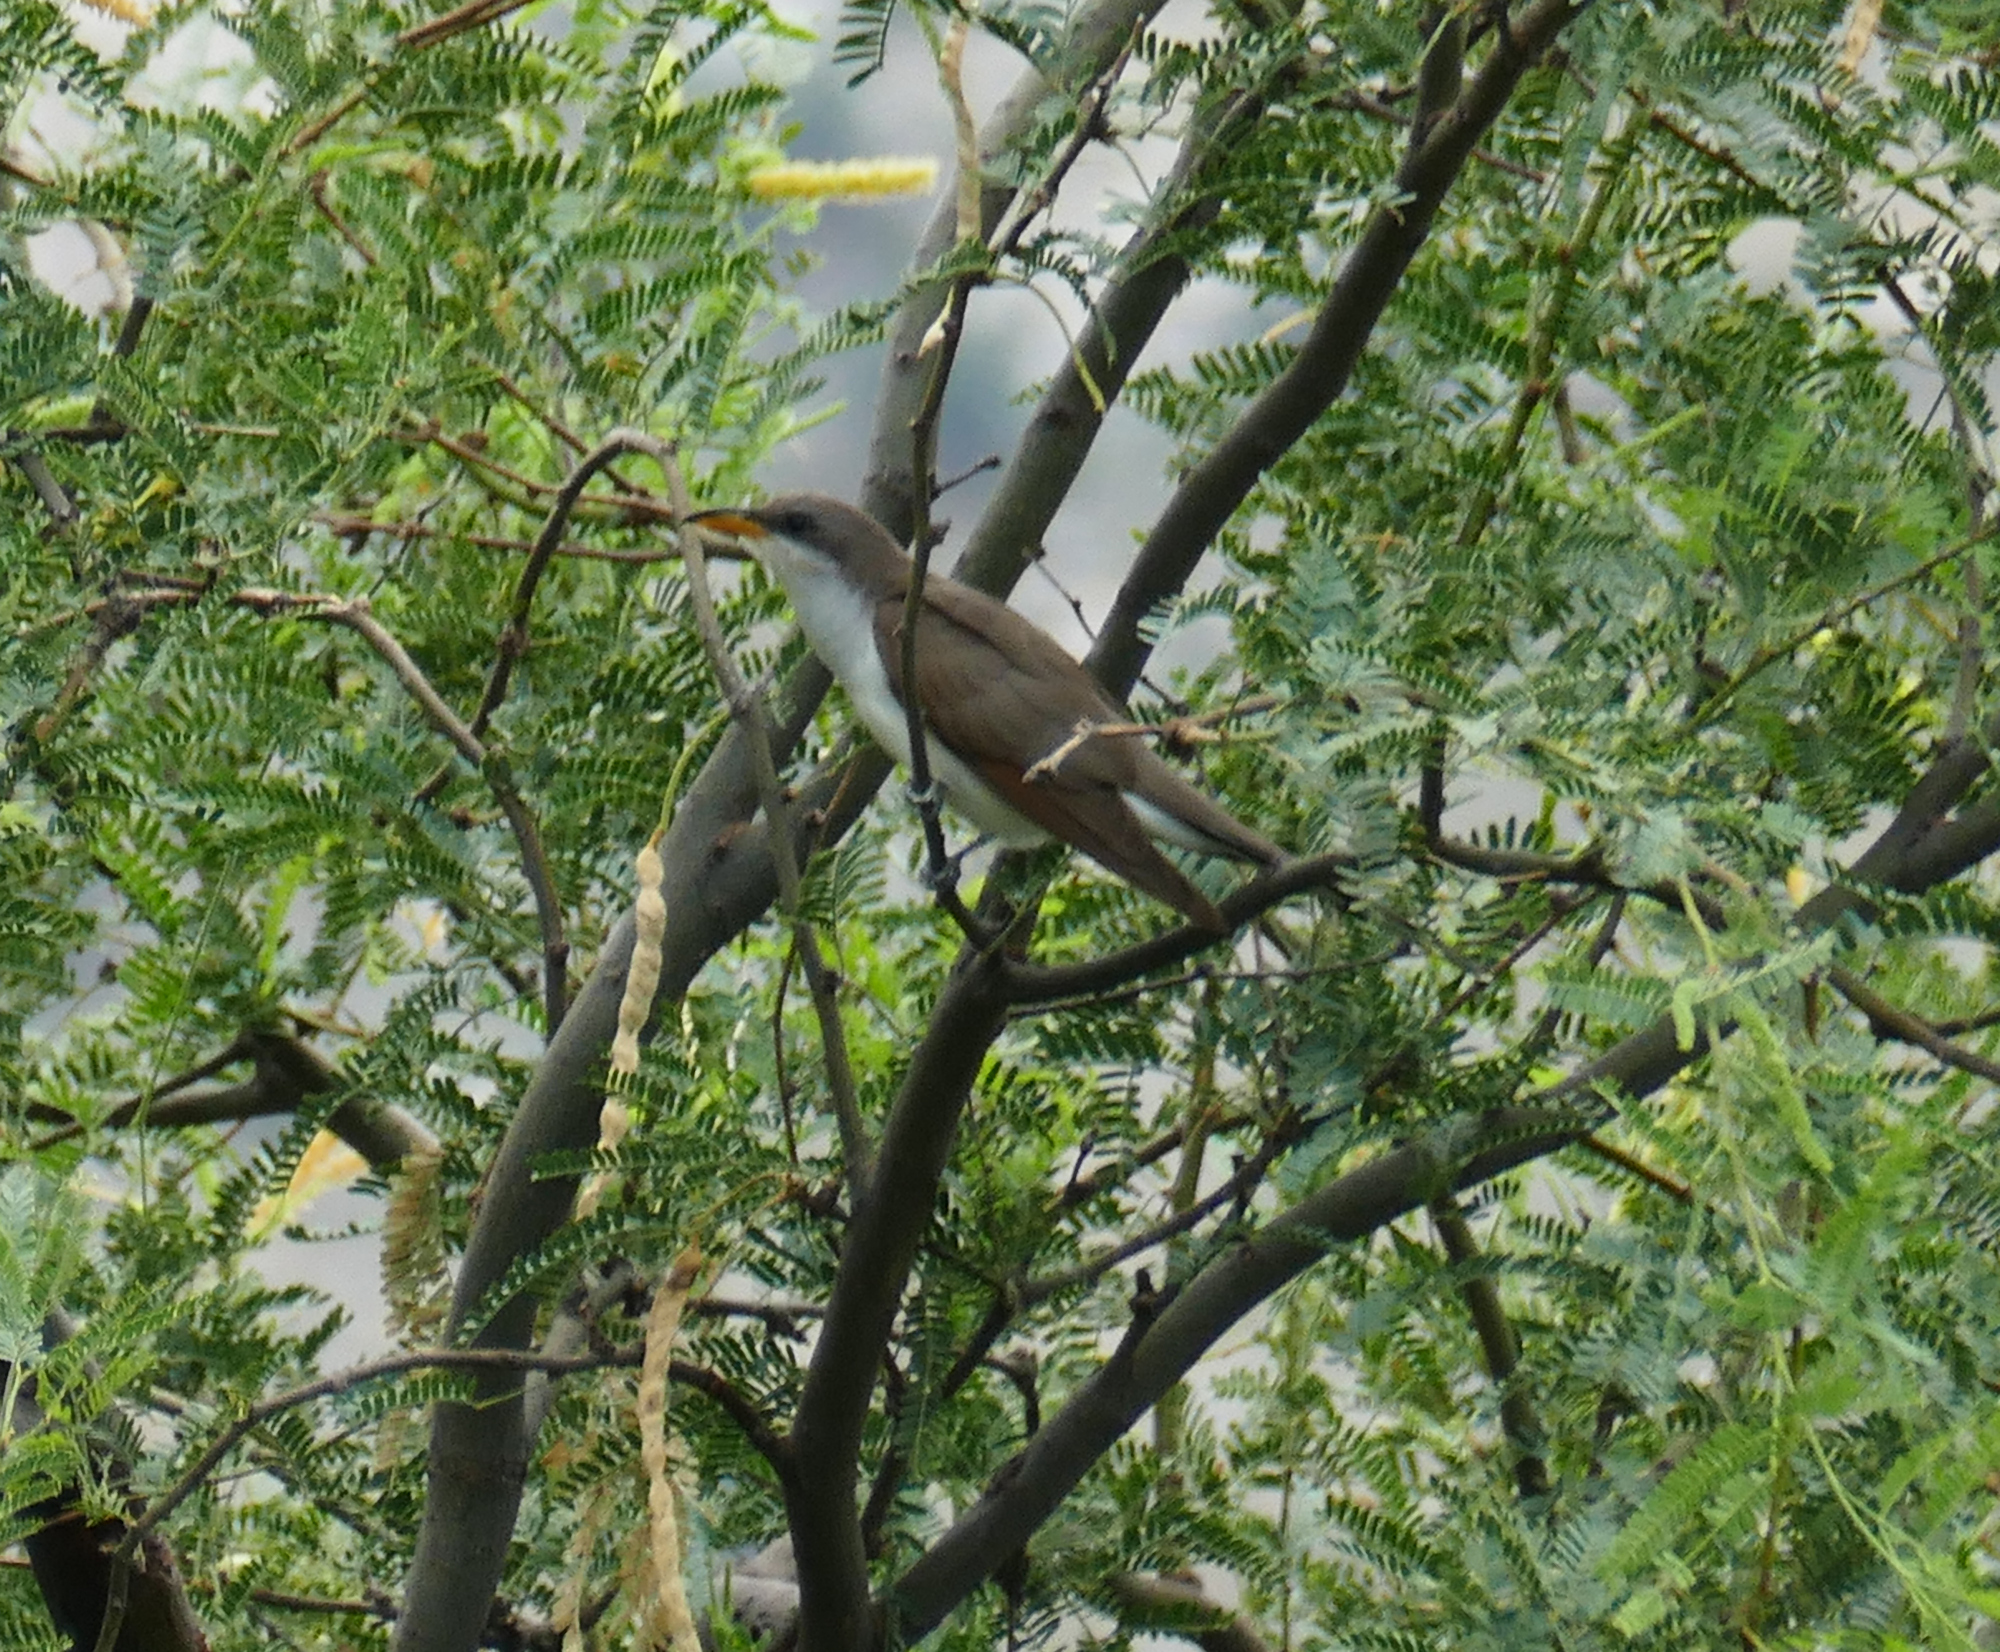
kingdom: Animalia
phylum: Chordata
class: Aves
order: Cuculiformes
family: Cuculidae
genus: Coccyzus
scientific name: Coccyzus americanus
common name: Yellow-billed cuckoo
